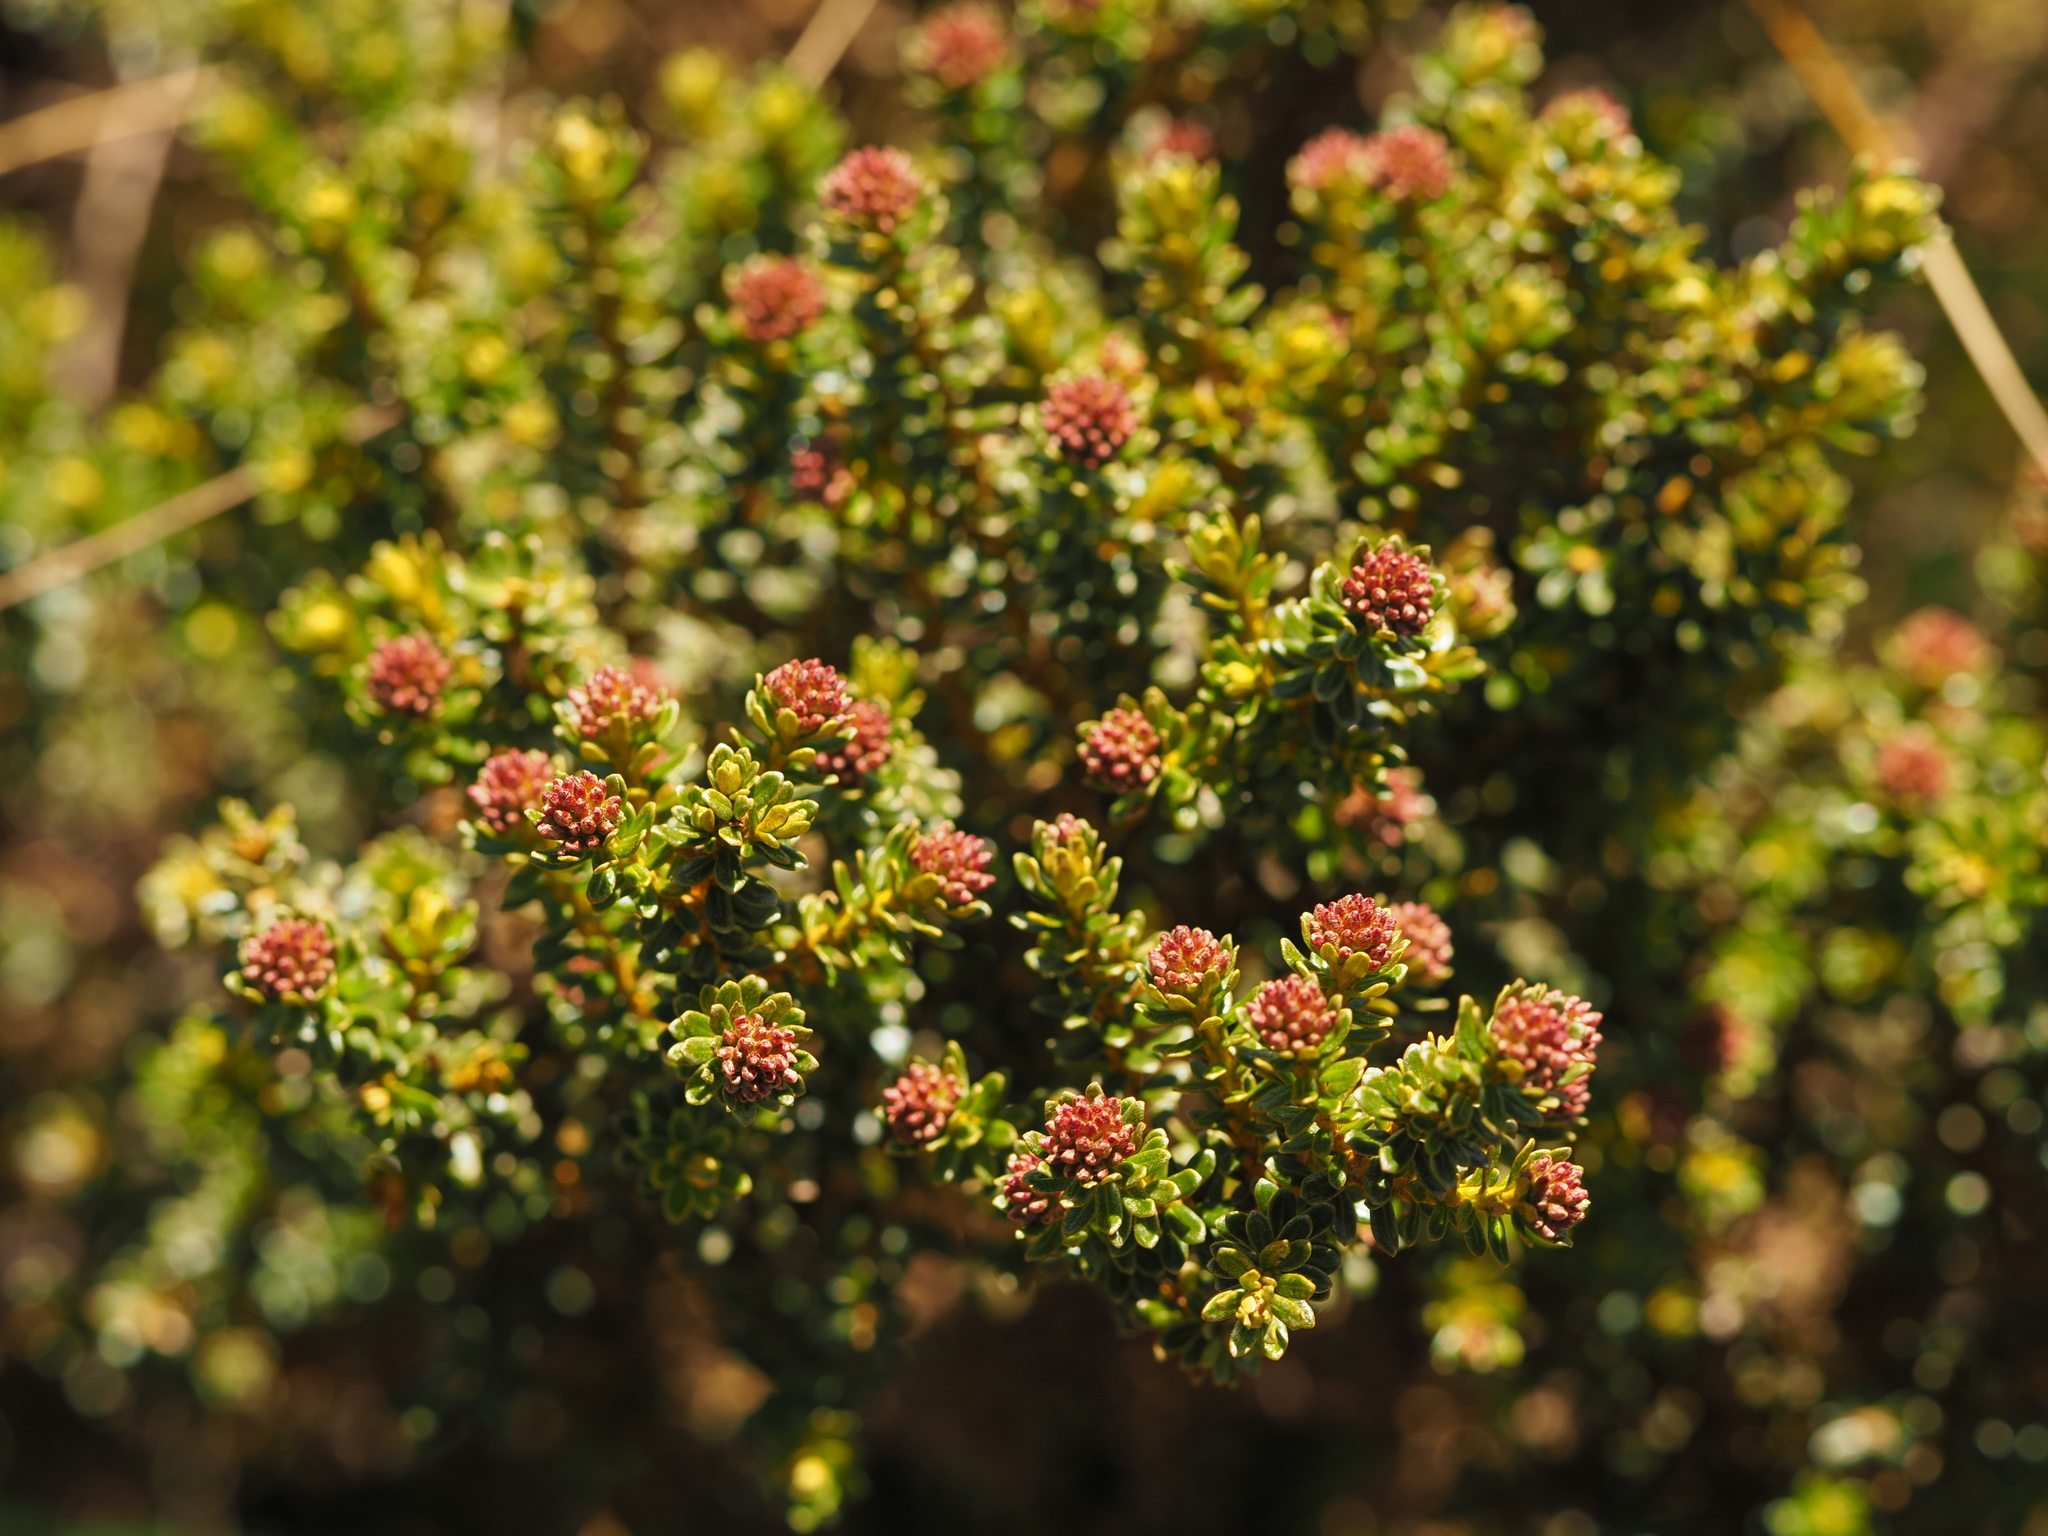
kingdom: Plantae
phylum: Tracheophyta
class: Magnoliopsida
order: Asterales
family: Asteraceae
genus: Ozothamnus
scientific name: Ozothamnus leptophyllus
